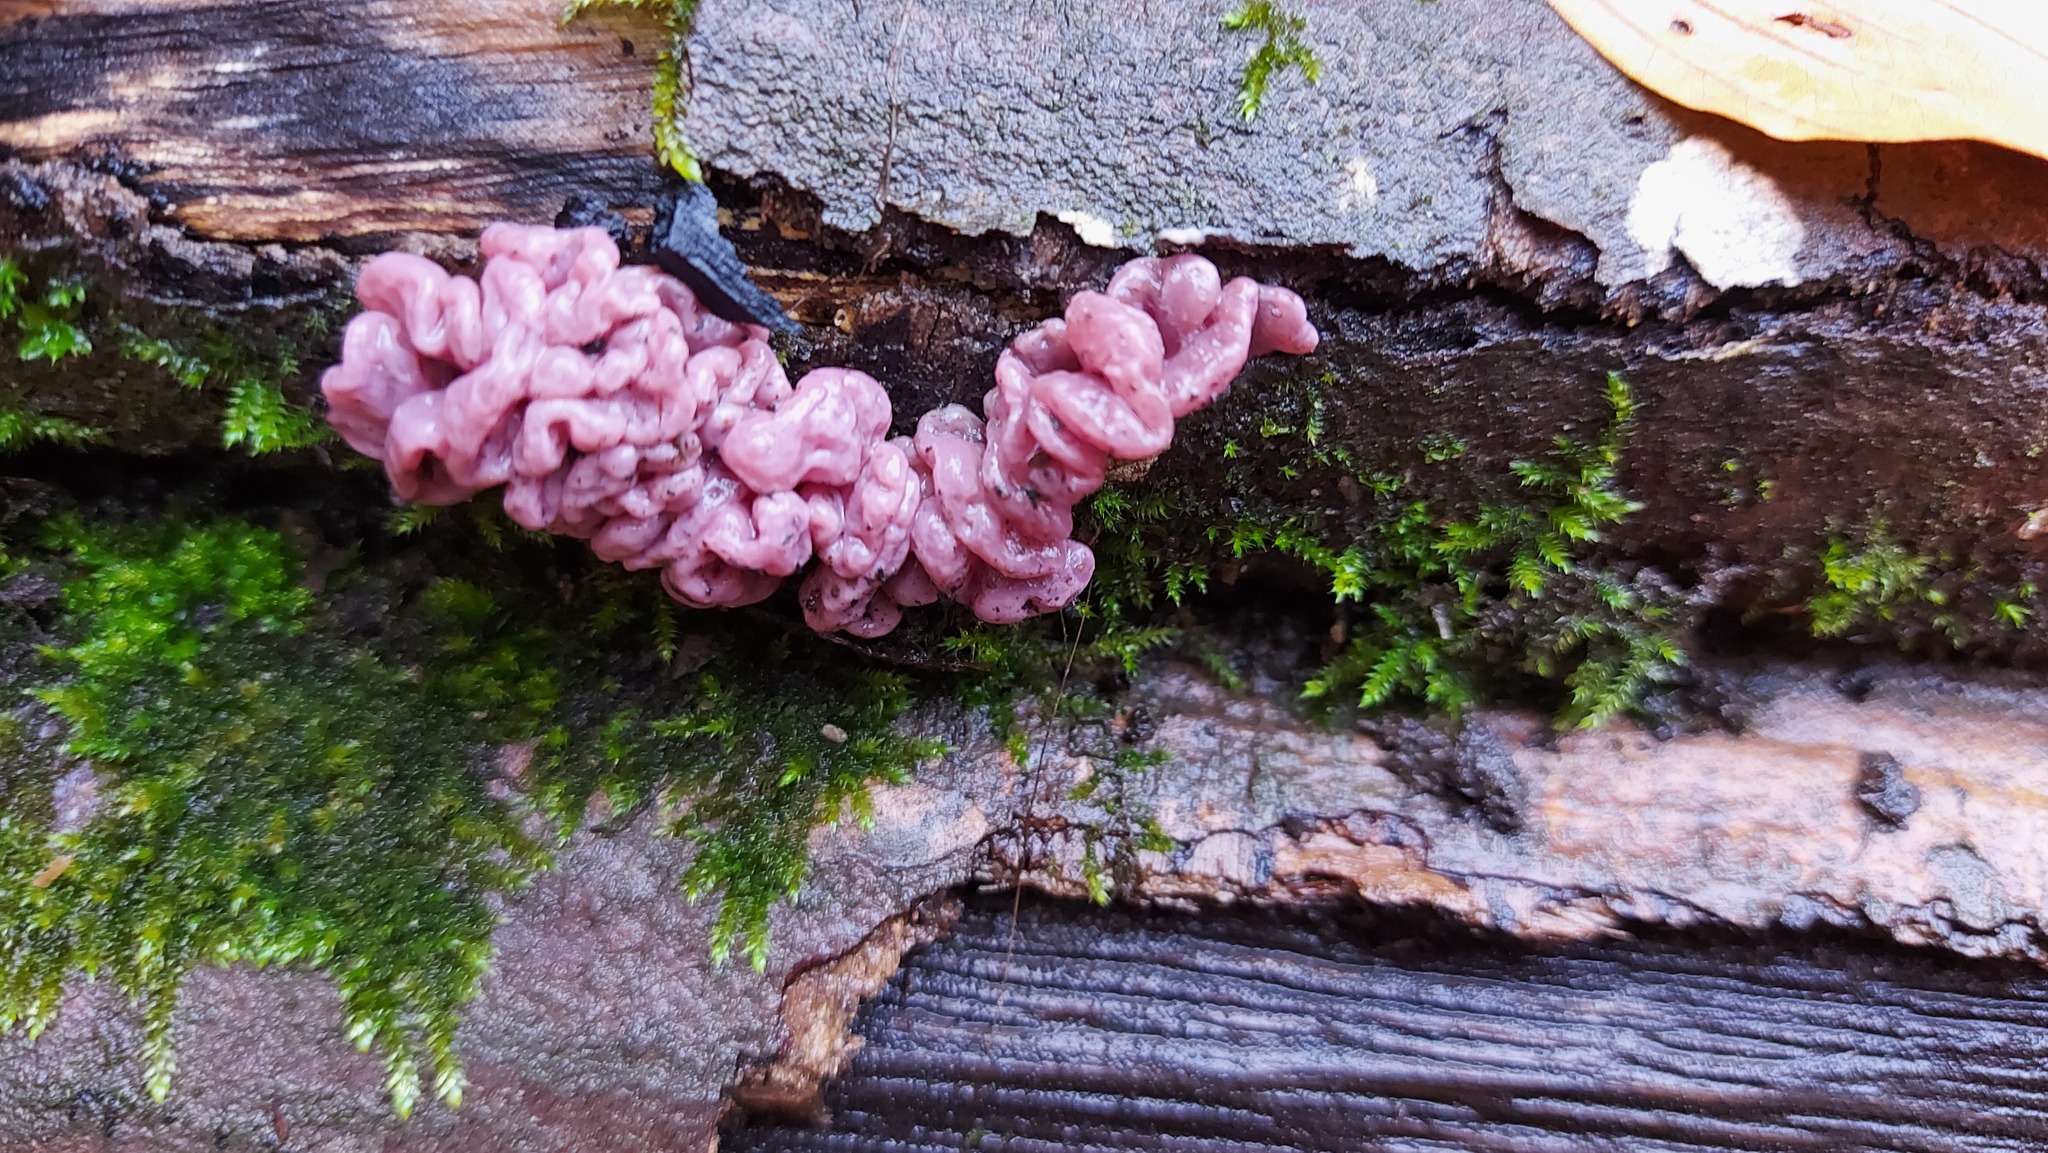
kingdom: Fungi
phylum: Ascomycota
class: Leotiomycetes
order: Helotiales
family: Gelatinodiscaceae
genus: Ascocoryne
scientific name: Ascocoryne sarcoides
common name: Purple jellydisc
